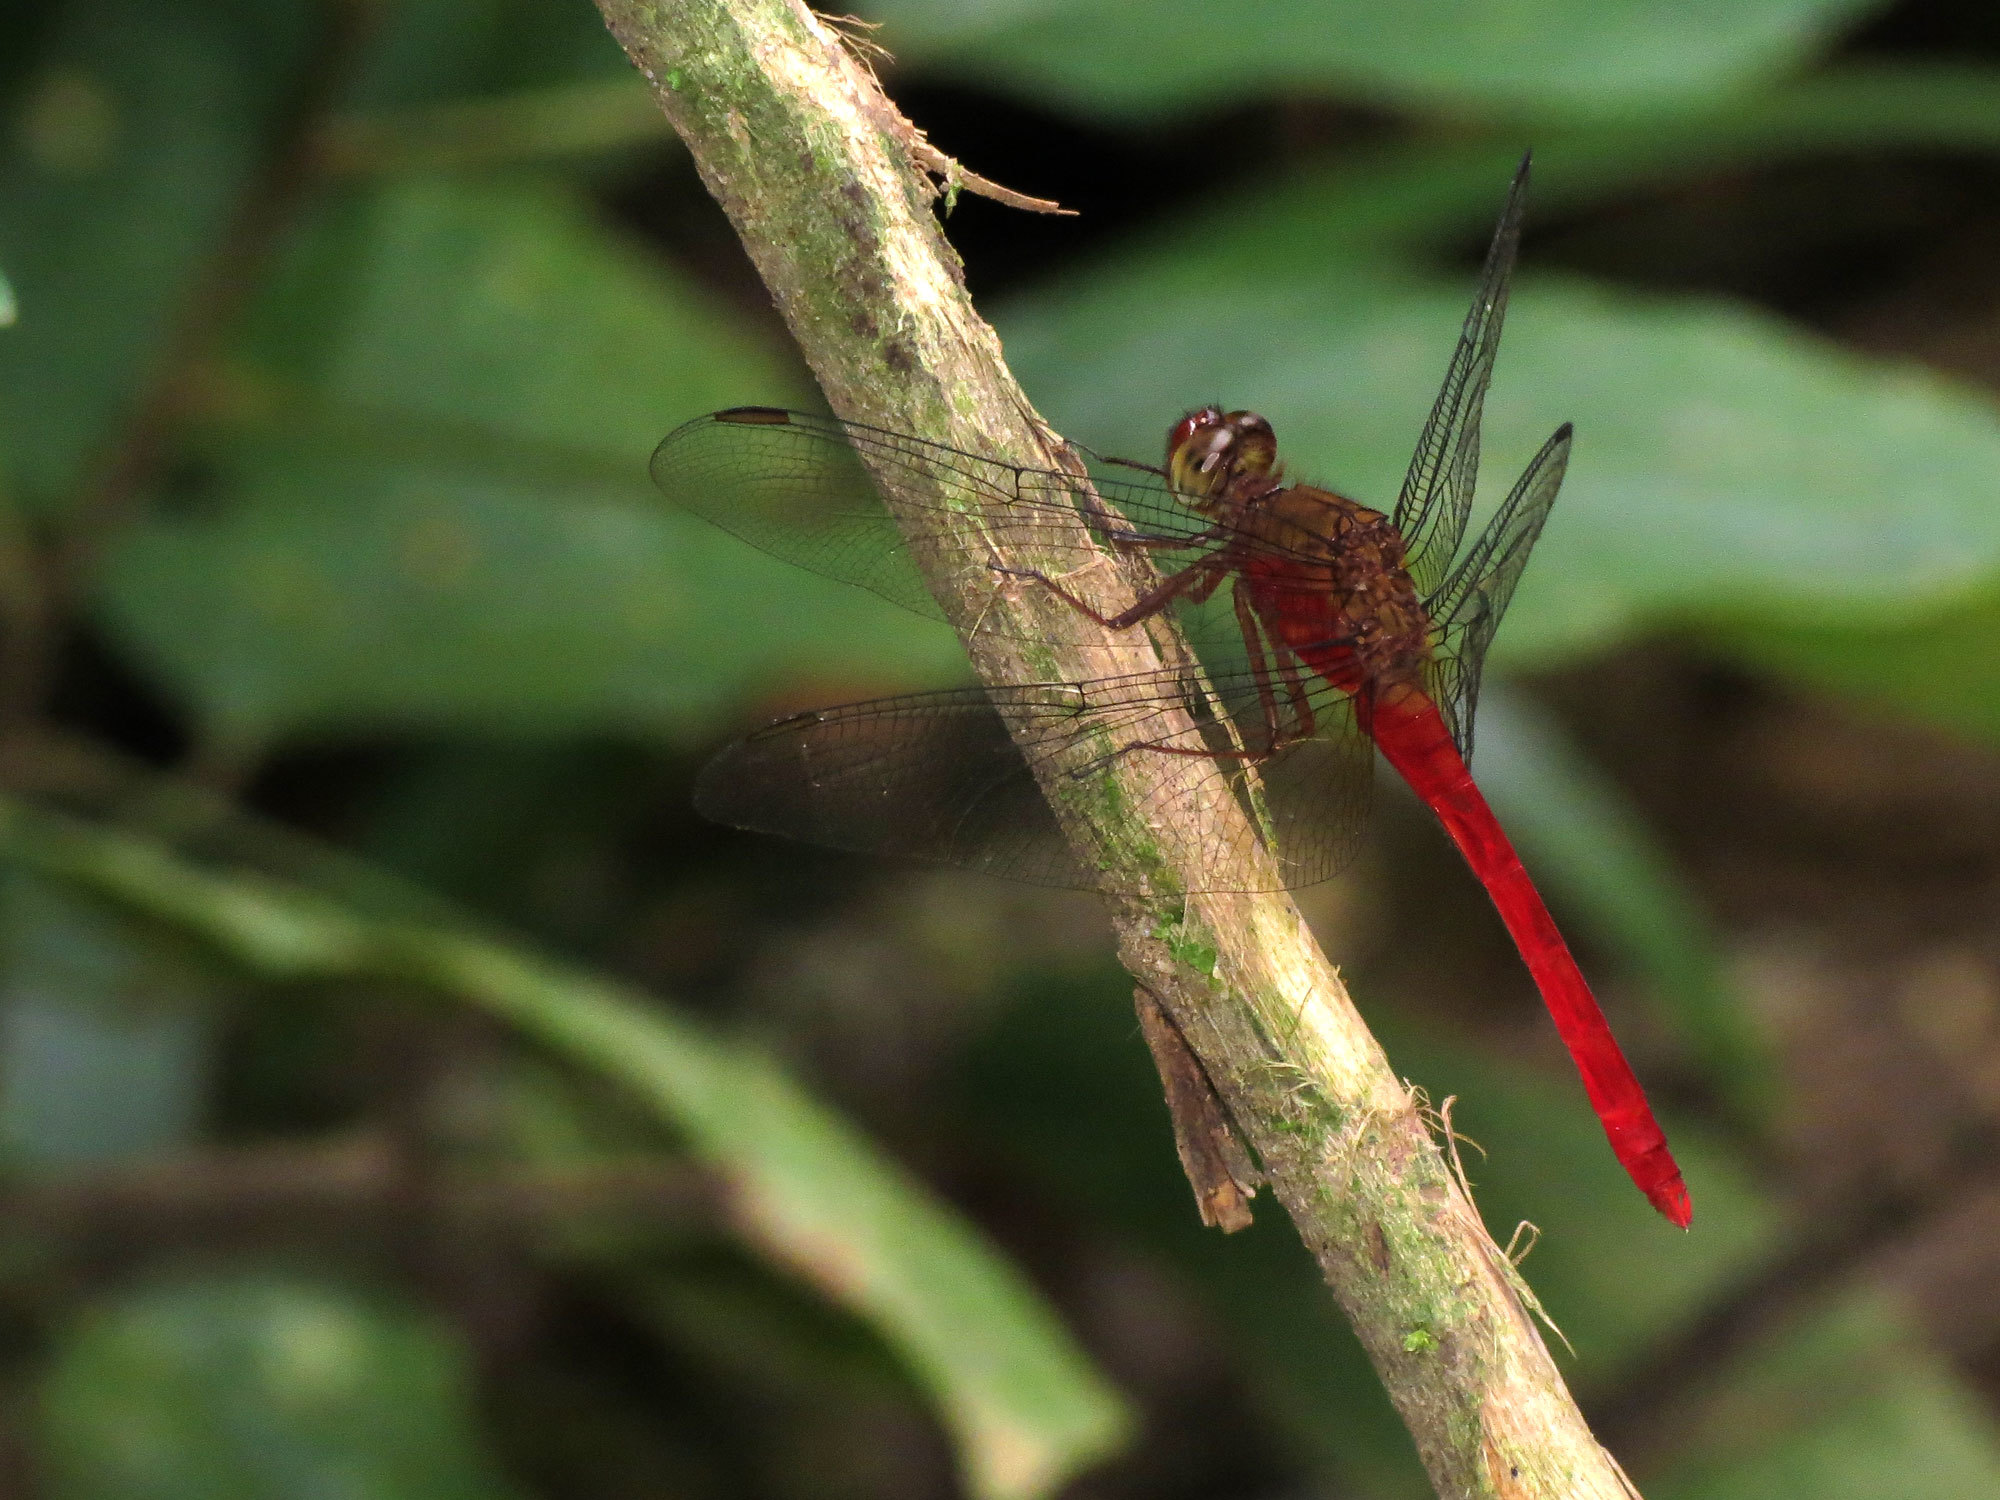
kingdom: Animalia
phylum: Arthropoda
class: Insecta
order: Odonata
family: Libellulidae
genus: Rhodopygia
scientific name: Rhodopygia hinei
